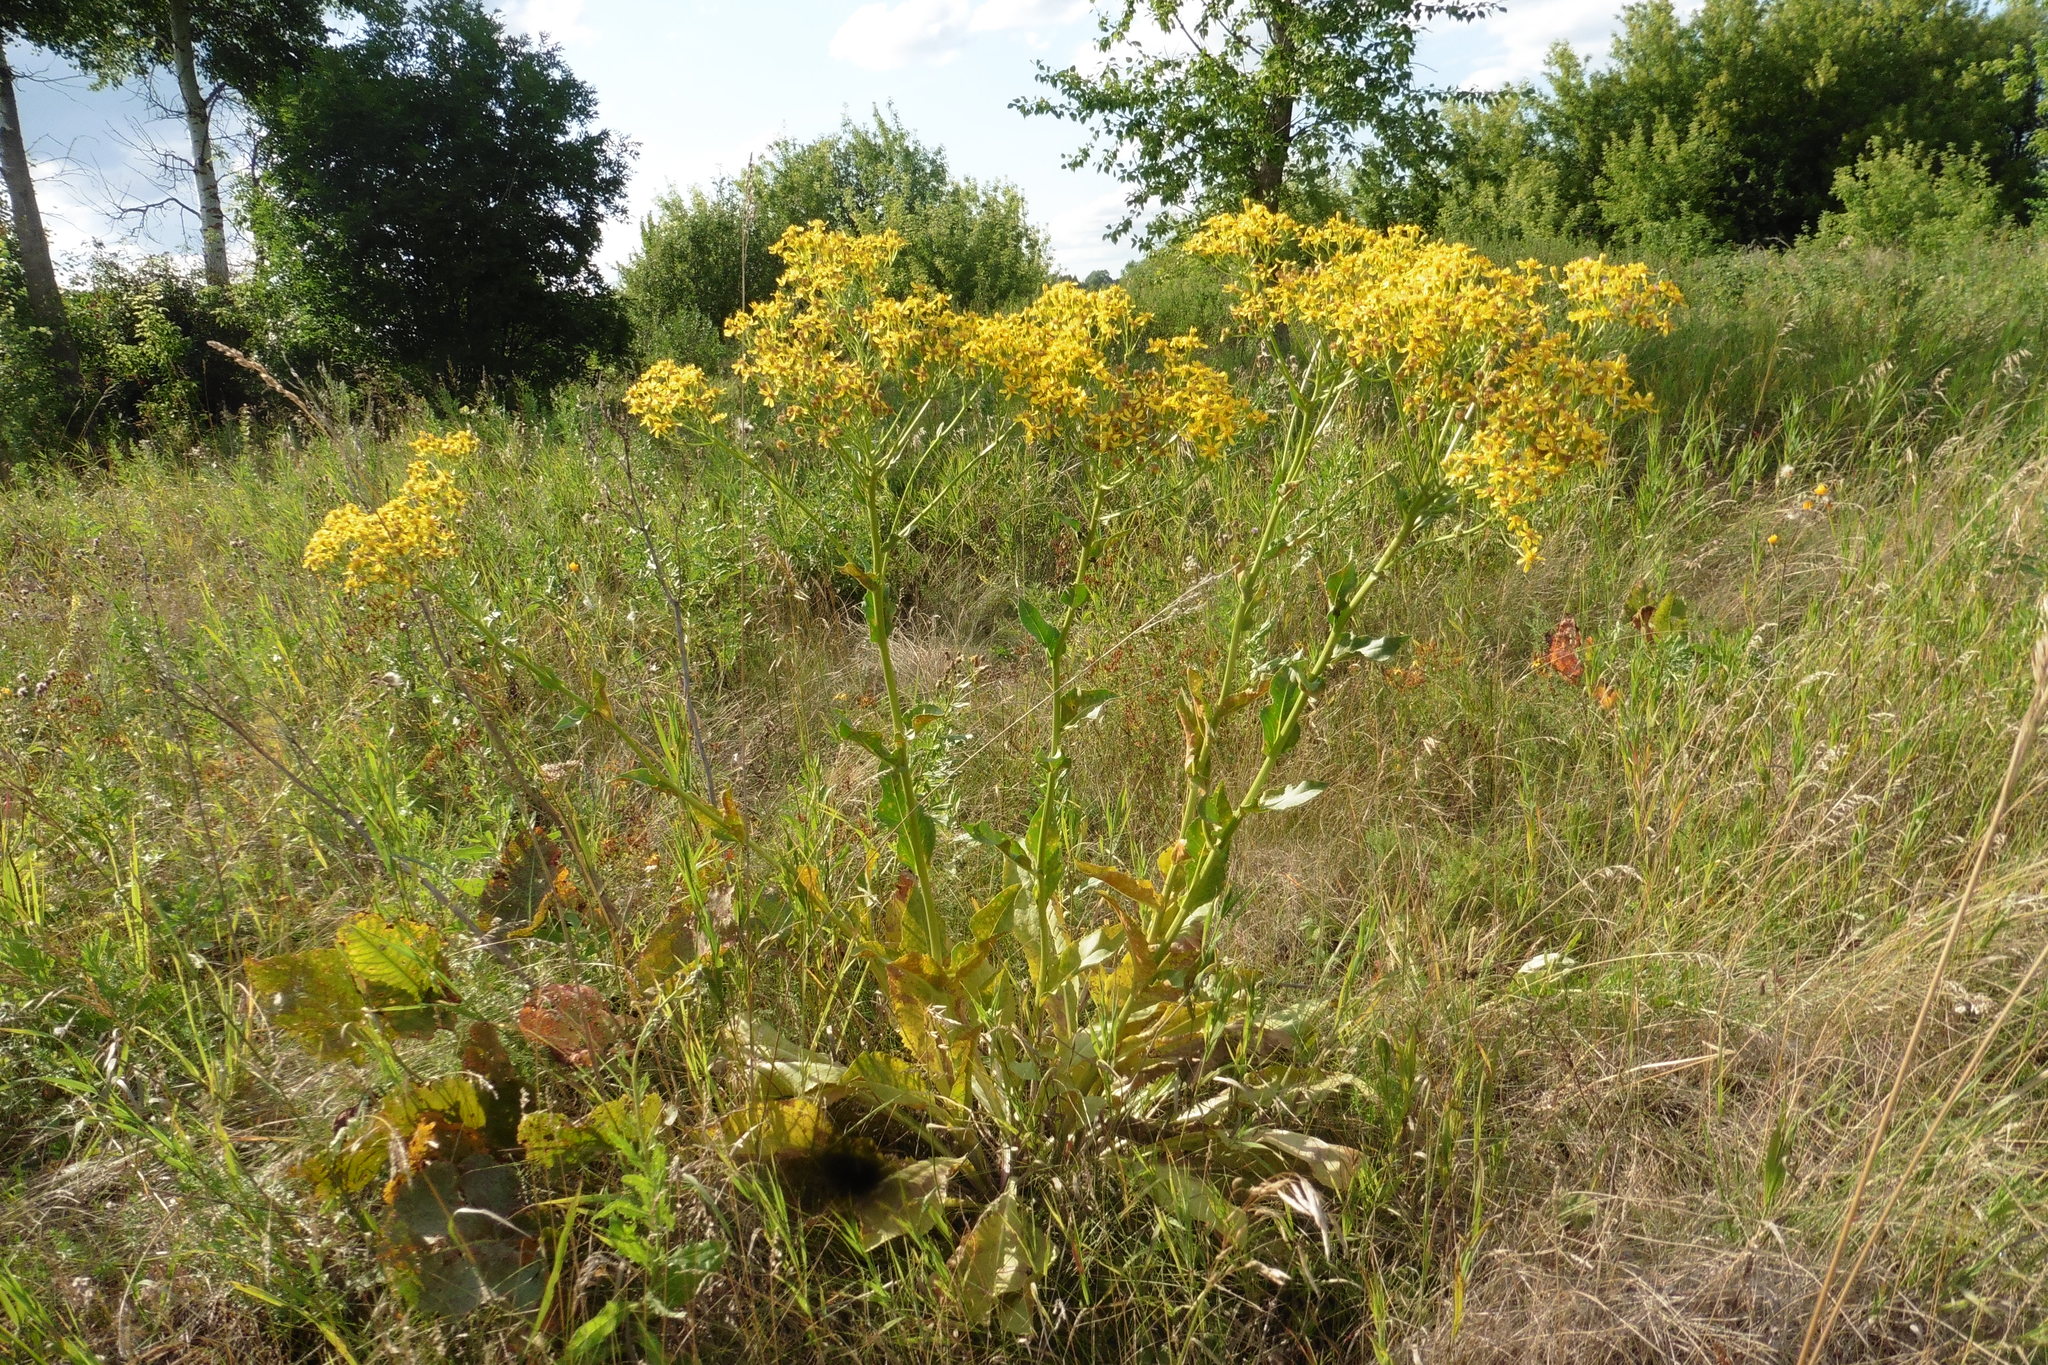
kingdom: Plantae
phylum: Tracheophyta
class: Magnoliopsida
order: Asterales
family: Asteraceae
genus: Senecio
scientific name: Senecio doria
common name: Golden ragwort
